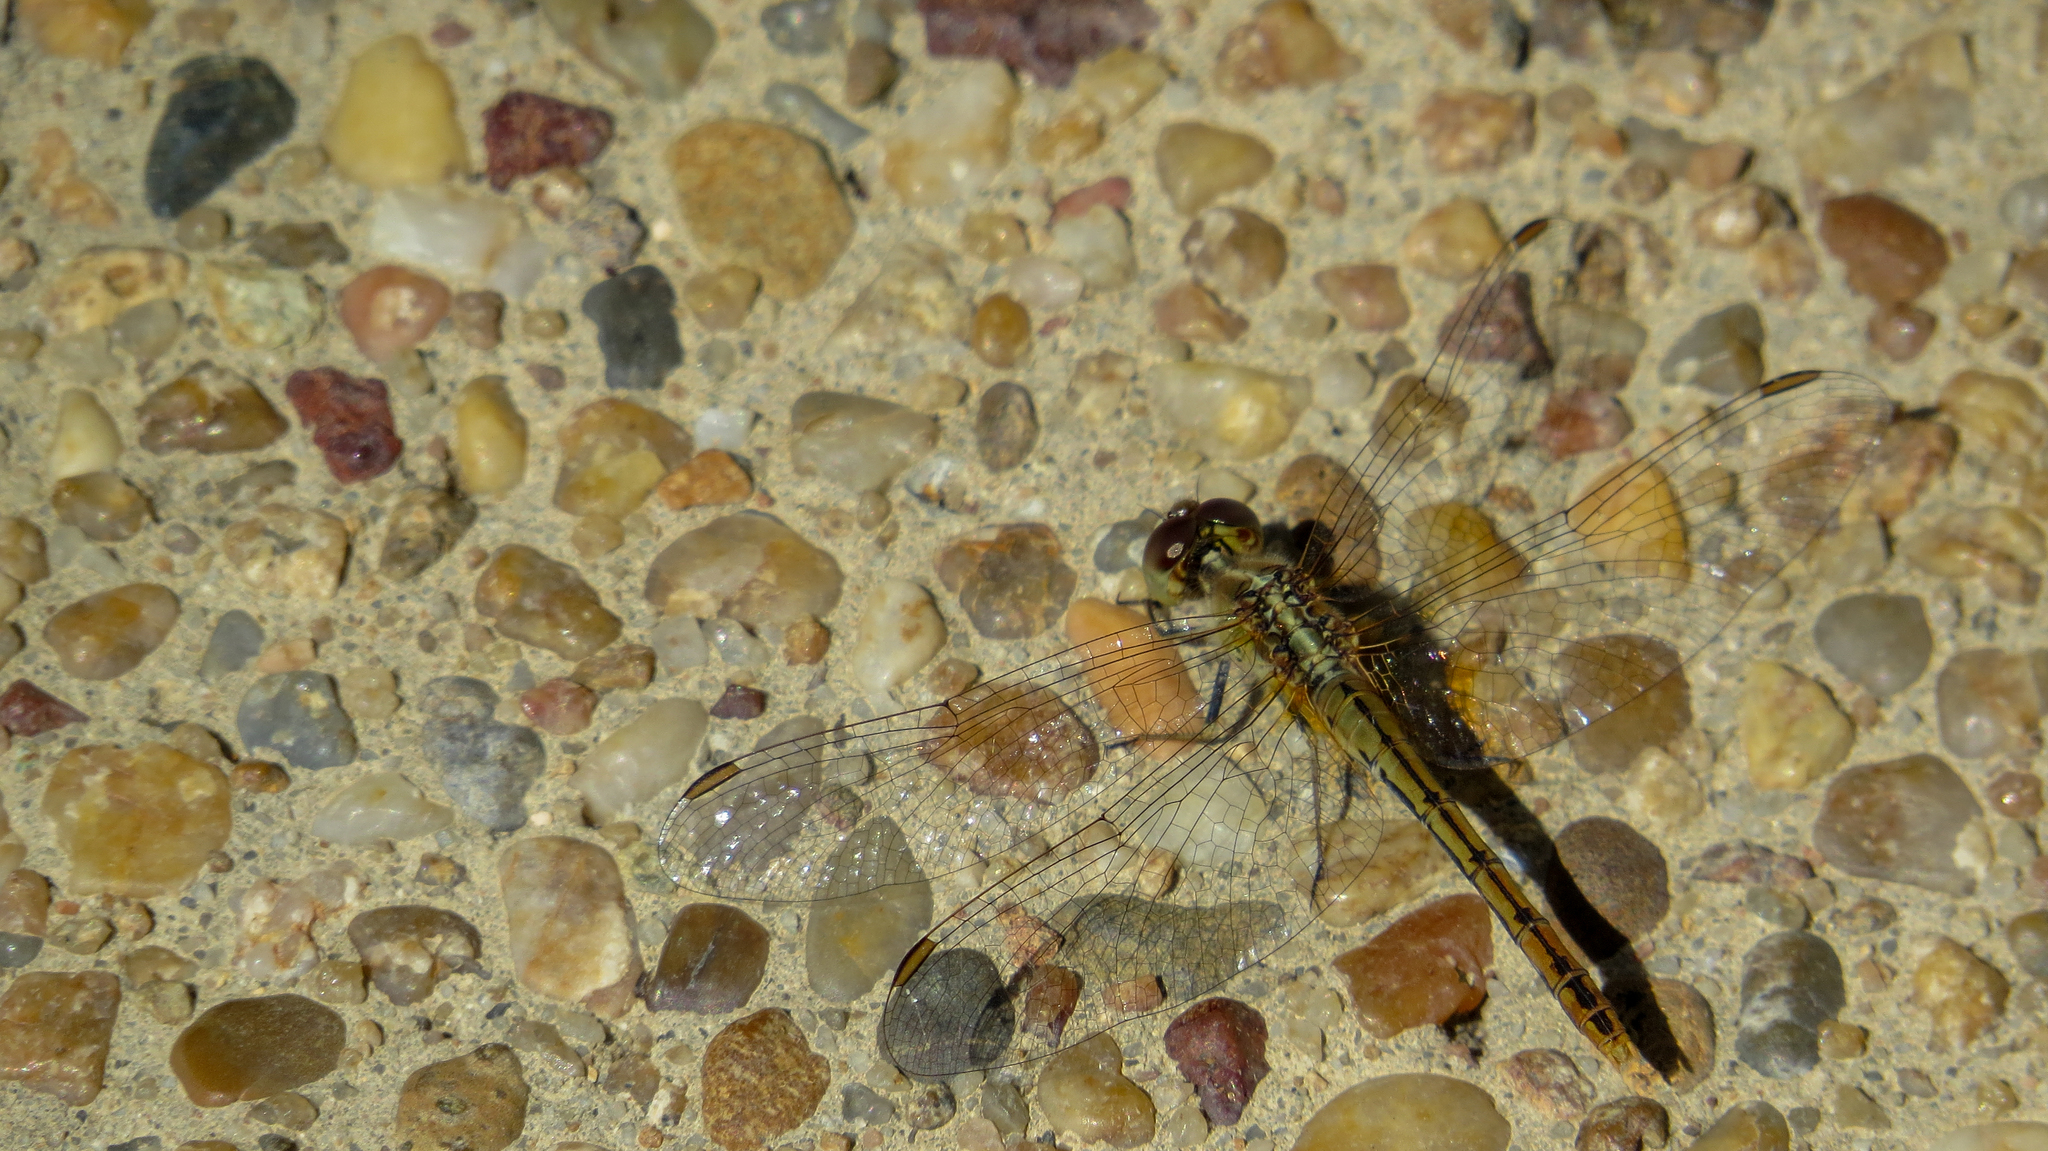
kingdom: Animalia
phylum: Arthropoda
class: Insecta
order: Odonata
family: Libellulidae
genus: Diplacodes
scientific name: Diplacodes bipunctata
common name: Red percher dragonfly
